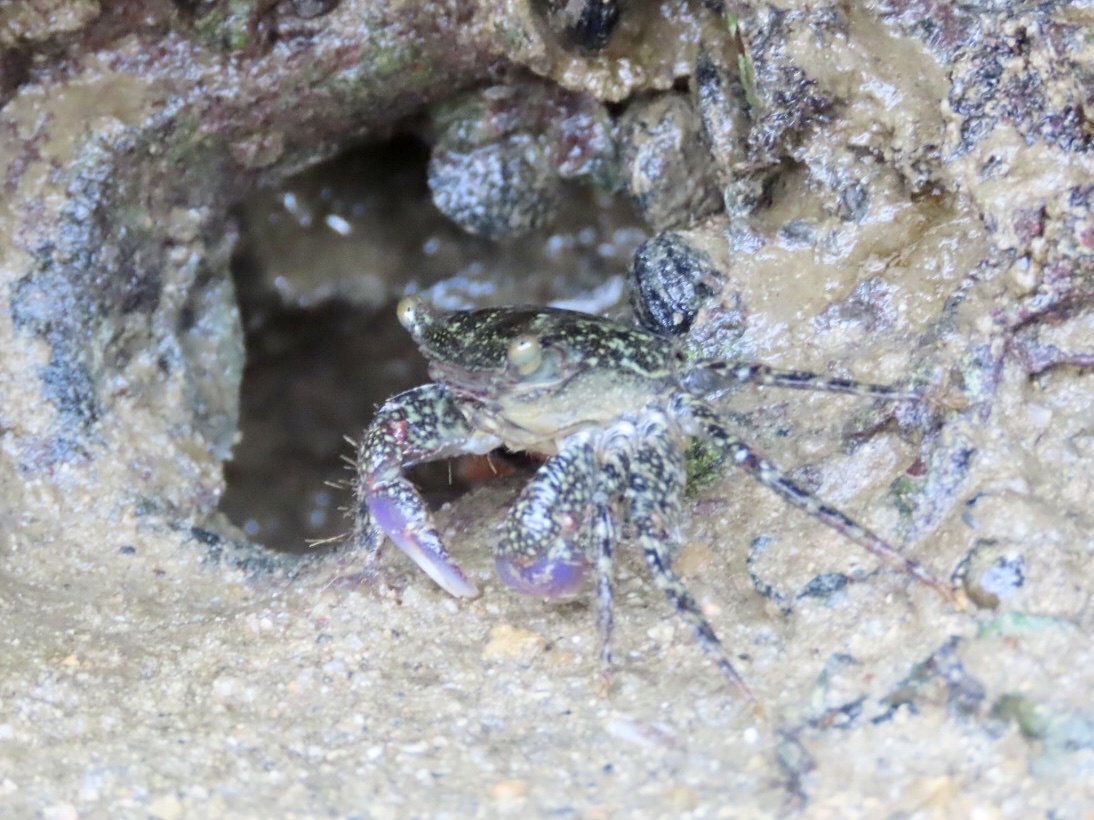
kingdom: Animalia
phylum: Arthropoda
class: Malacostraca
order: Decapoda
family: Grapsidae
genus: Metopograpsus
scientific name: Metopograpsus frontalis
